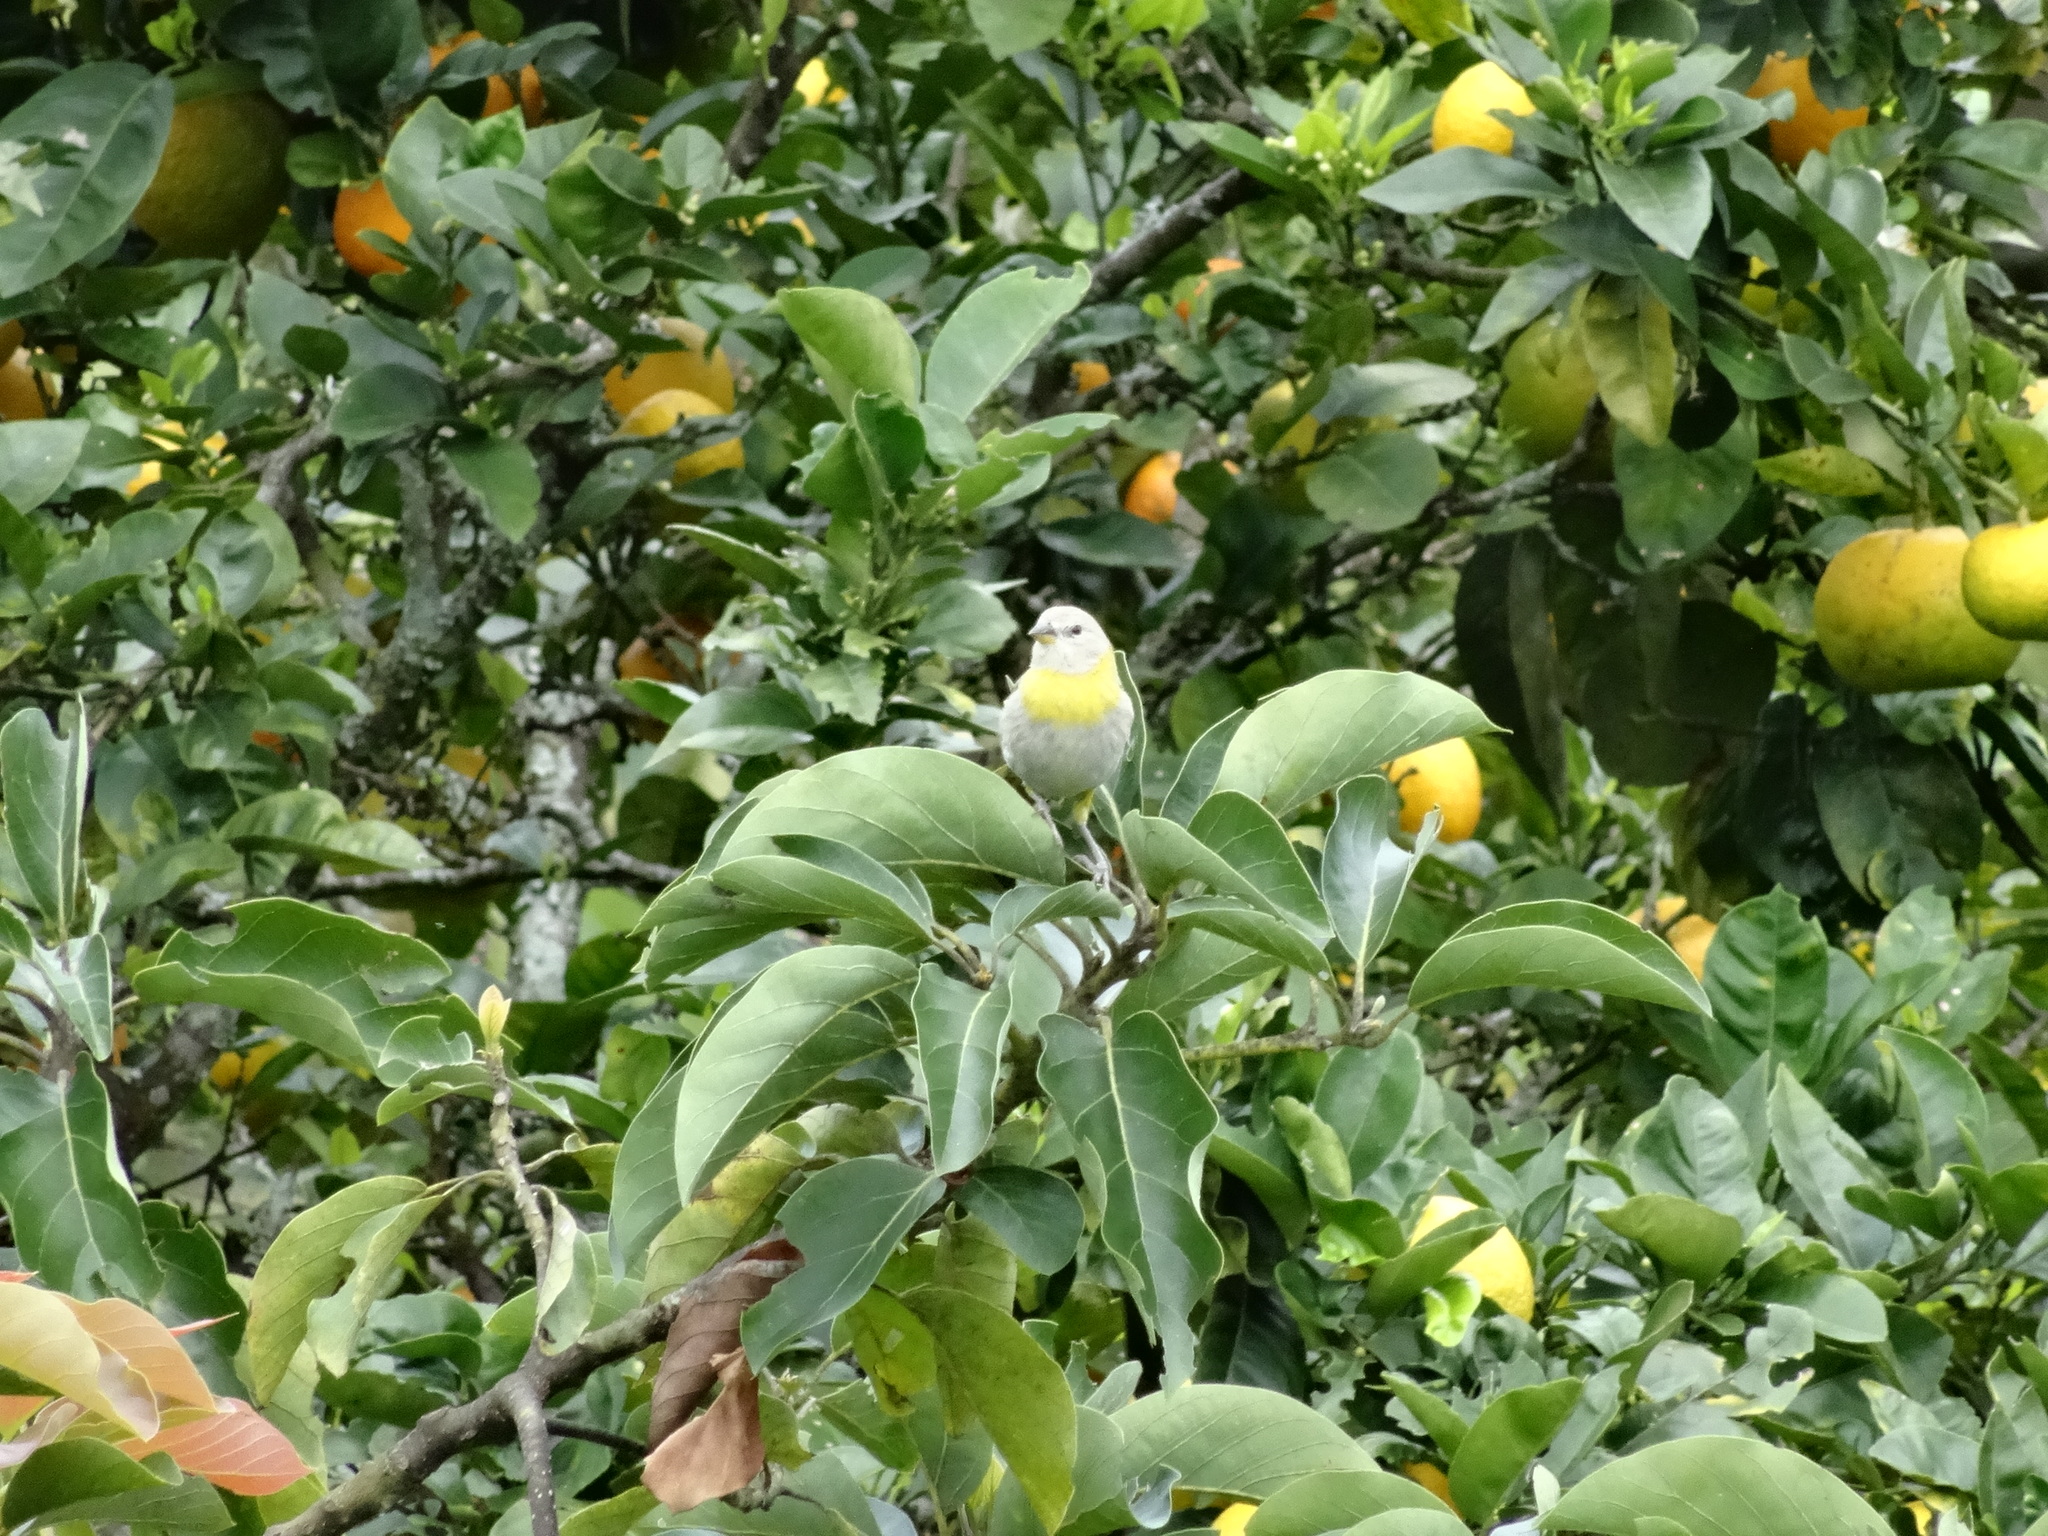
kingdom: Animalia
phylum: Chordata
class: Aves
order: Passeriformes
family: Thraupidae
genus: Sicalis
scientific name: Sicalis flaveola
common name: Saffron finch
